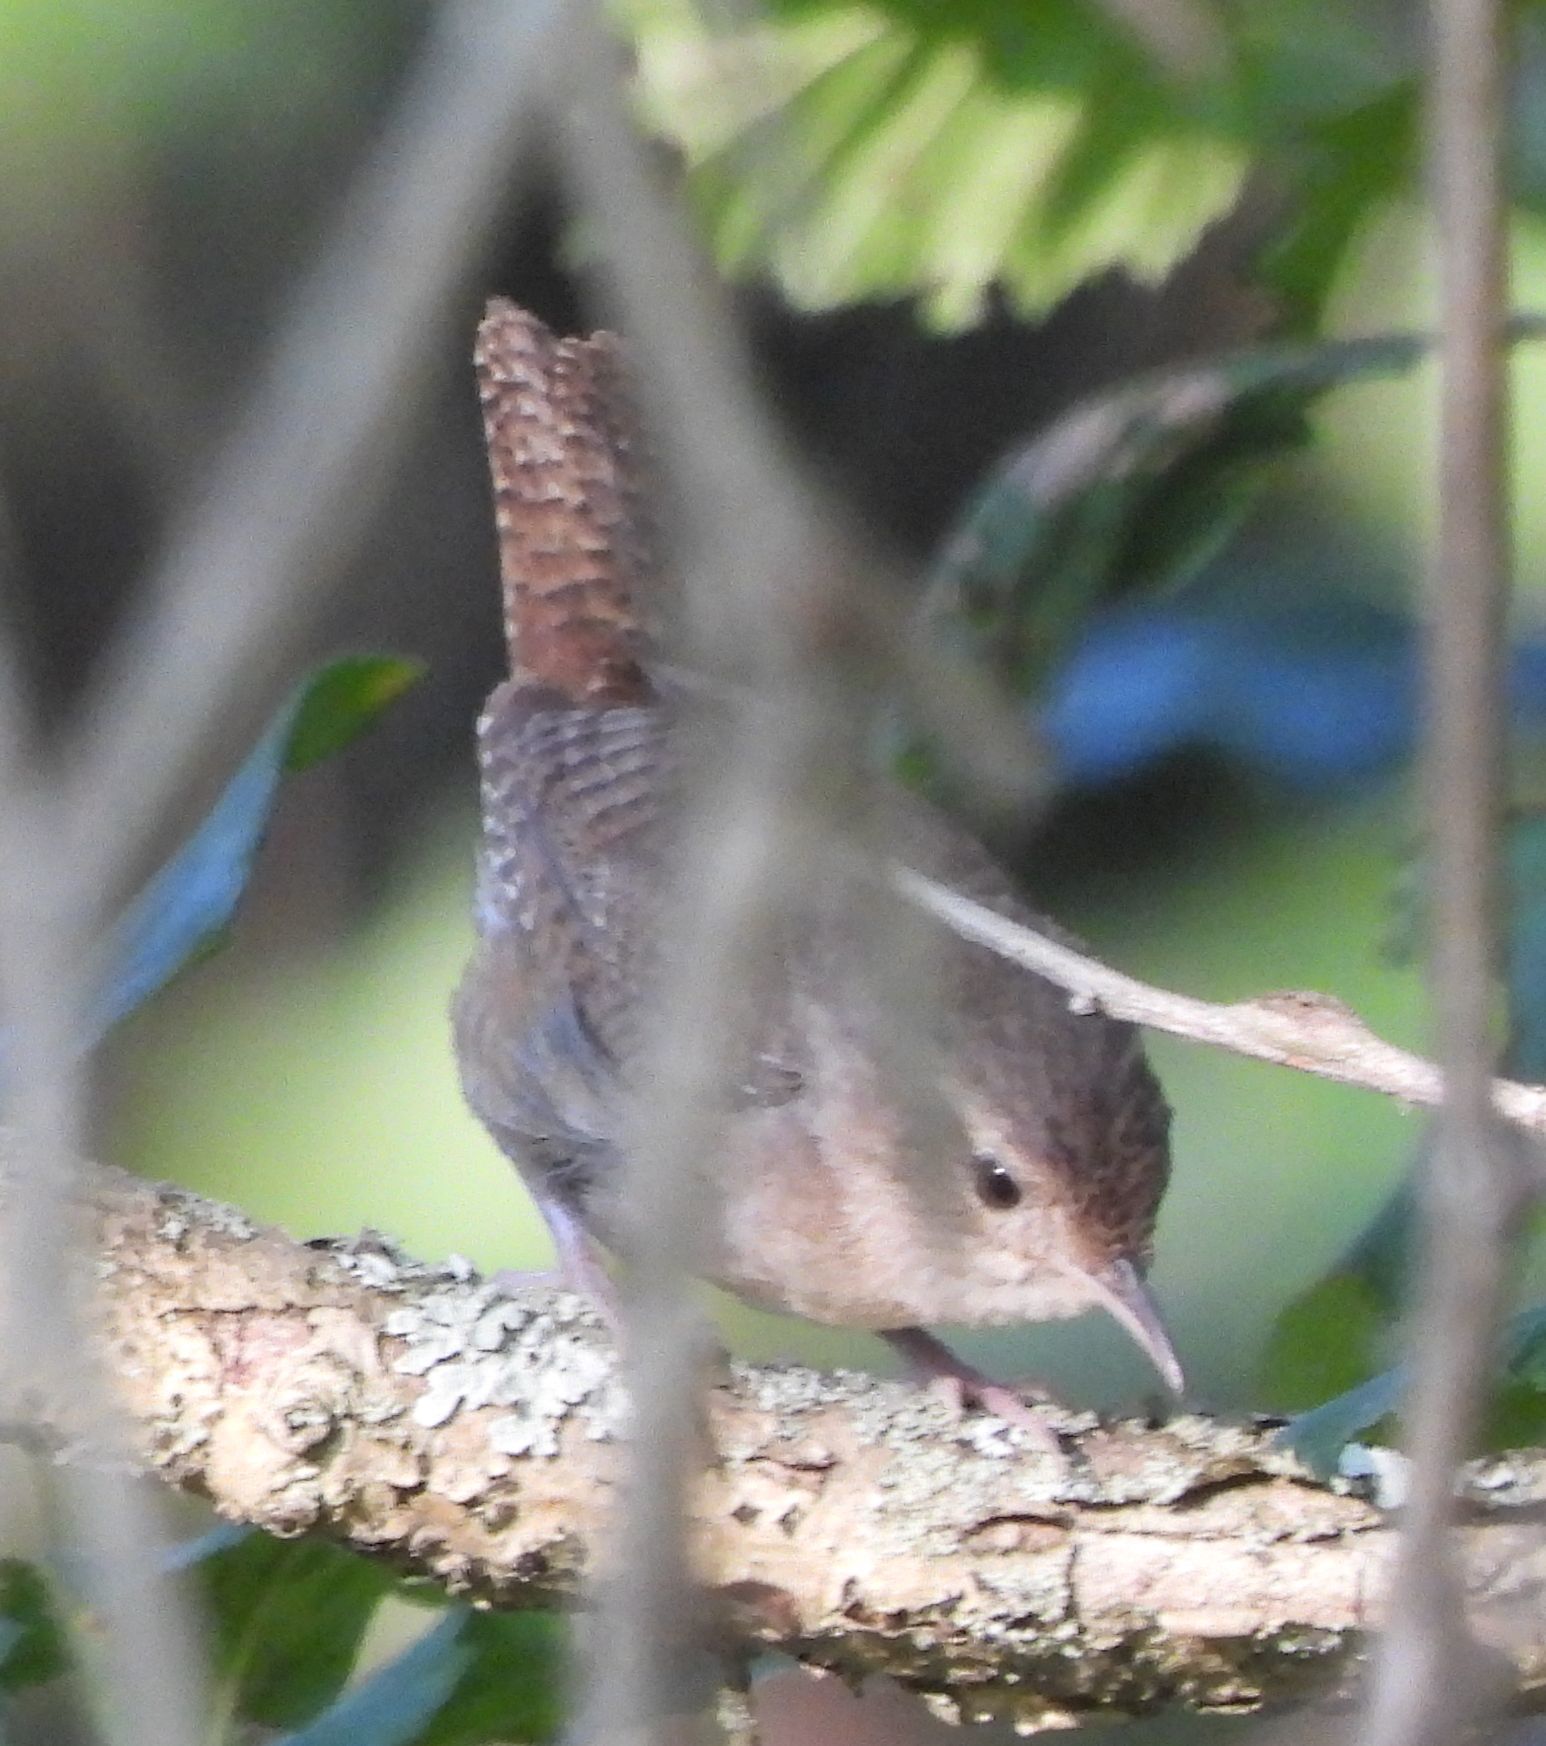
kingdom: Animalia
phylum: Chordata
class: Aves
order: Passeriformes
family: Troglodytidae
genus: Troglodytes
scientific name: Troglodytes aedon
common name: House wren
